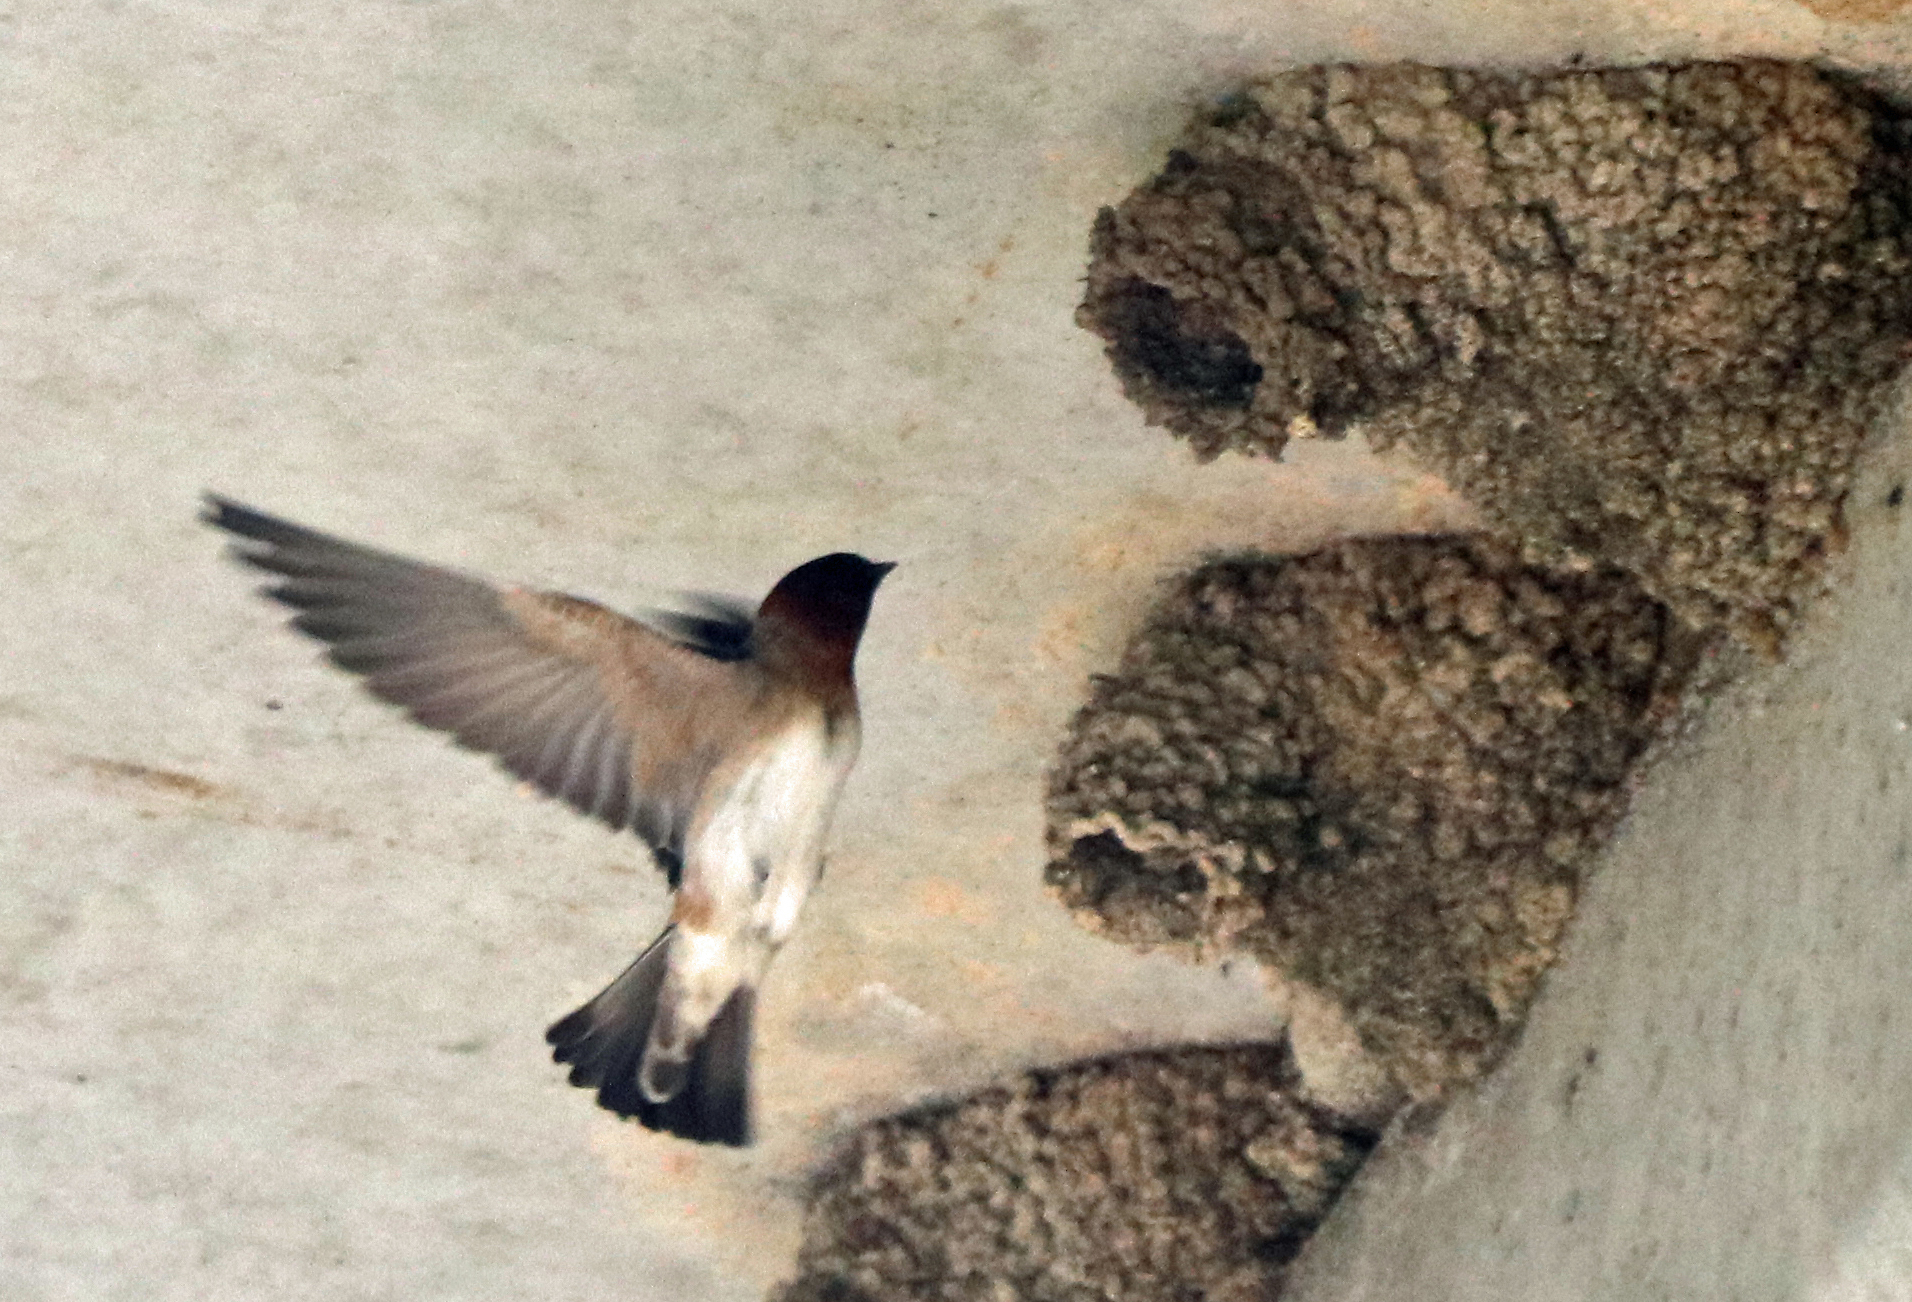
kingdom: Animalia
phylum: Chordata
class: Aves
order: Passeriformes
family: Hirundinidae
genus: Petrochelidon
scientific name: Petrochelidon pyrrhonota
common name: American cliff swallow
